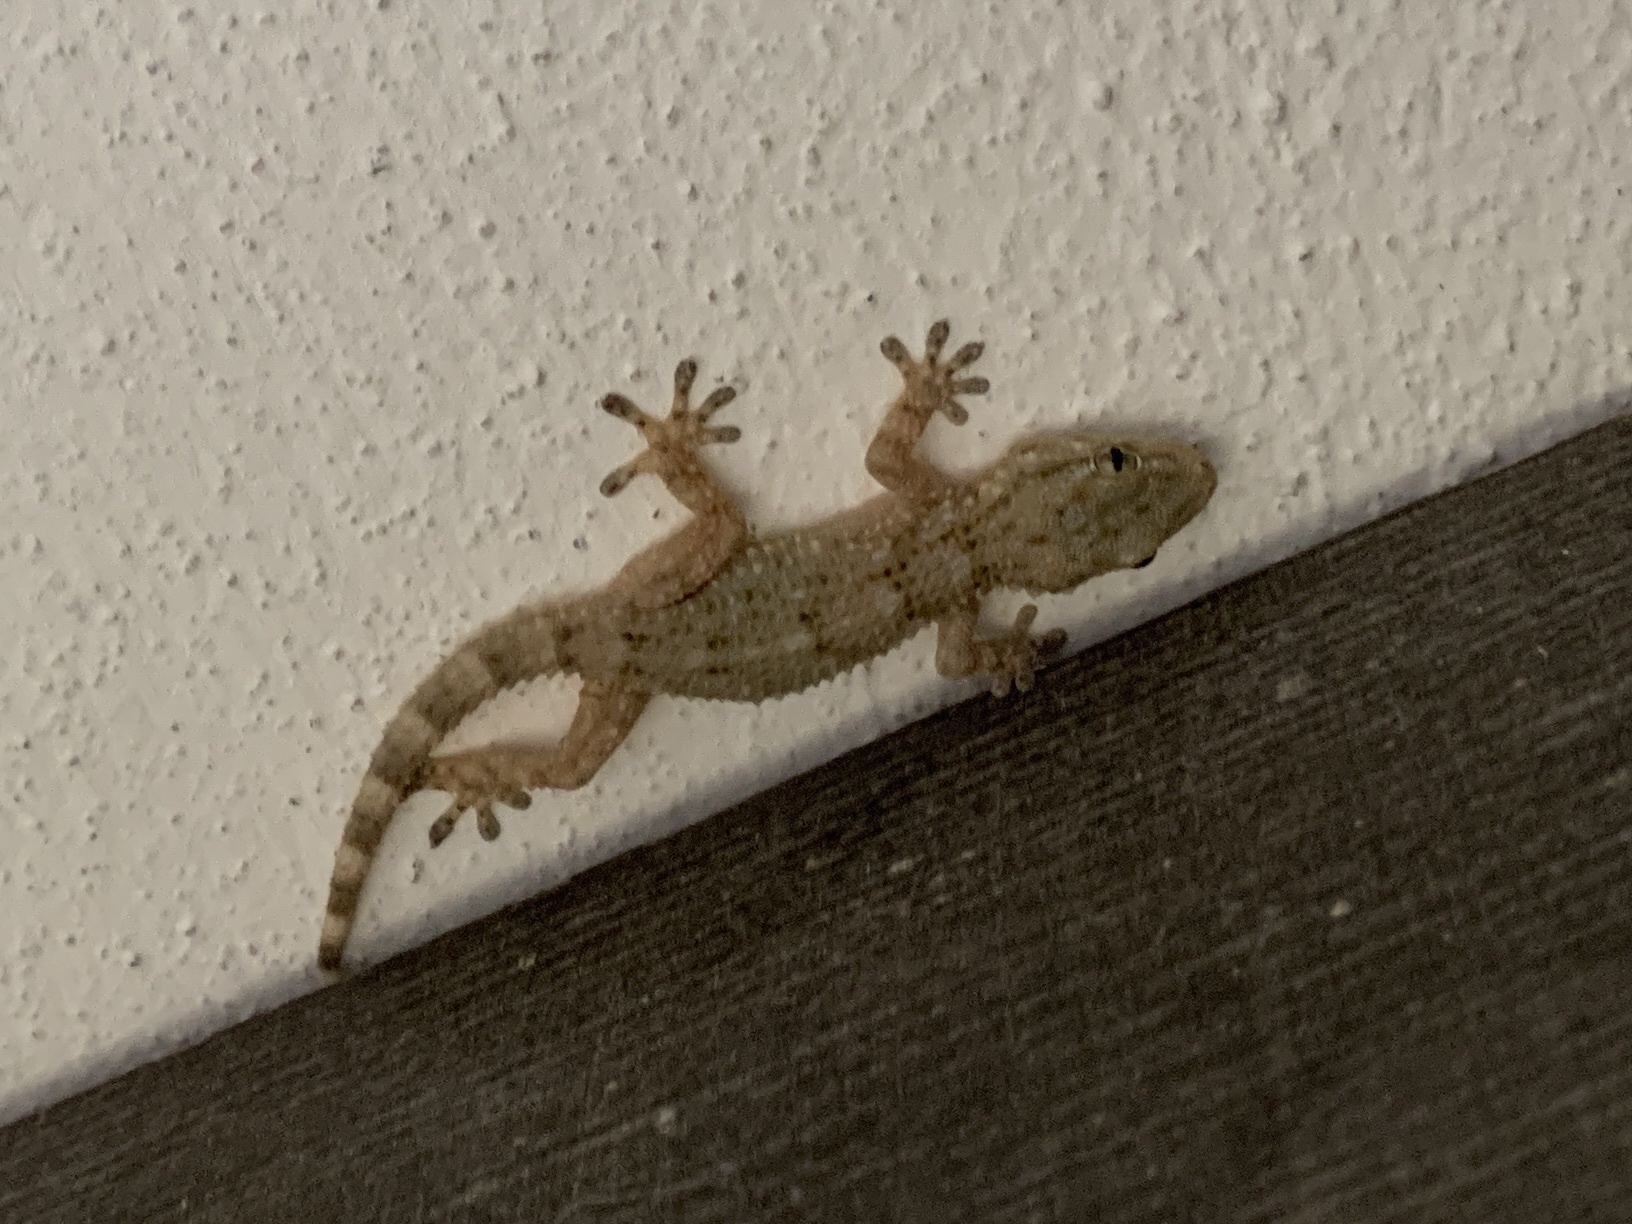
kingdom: Animalia
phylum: Chordata
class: Squamata
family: Phyllodactylidae
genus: Tarentola
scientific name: Tarentola mauritanica
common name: Moorish gecko
